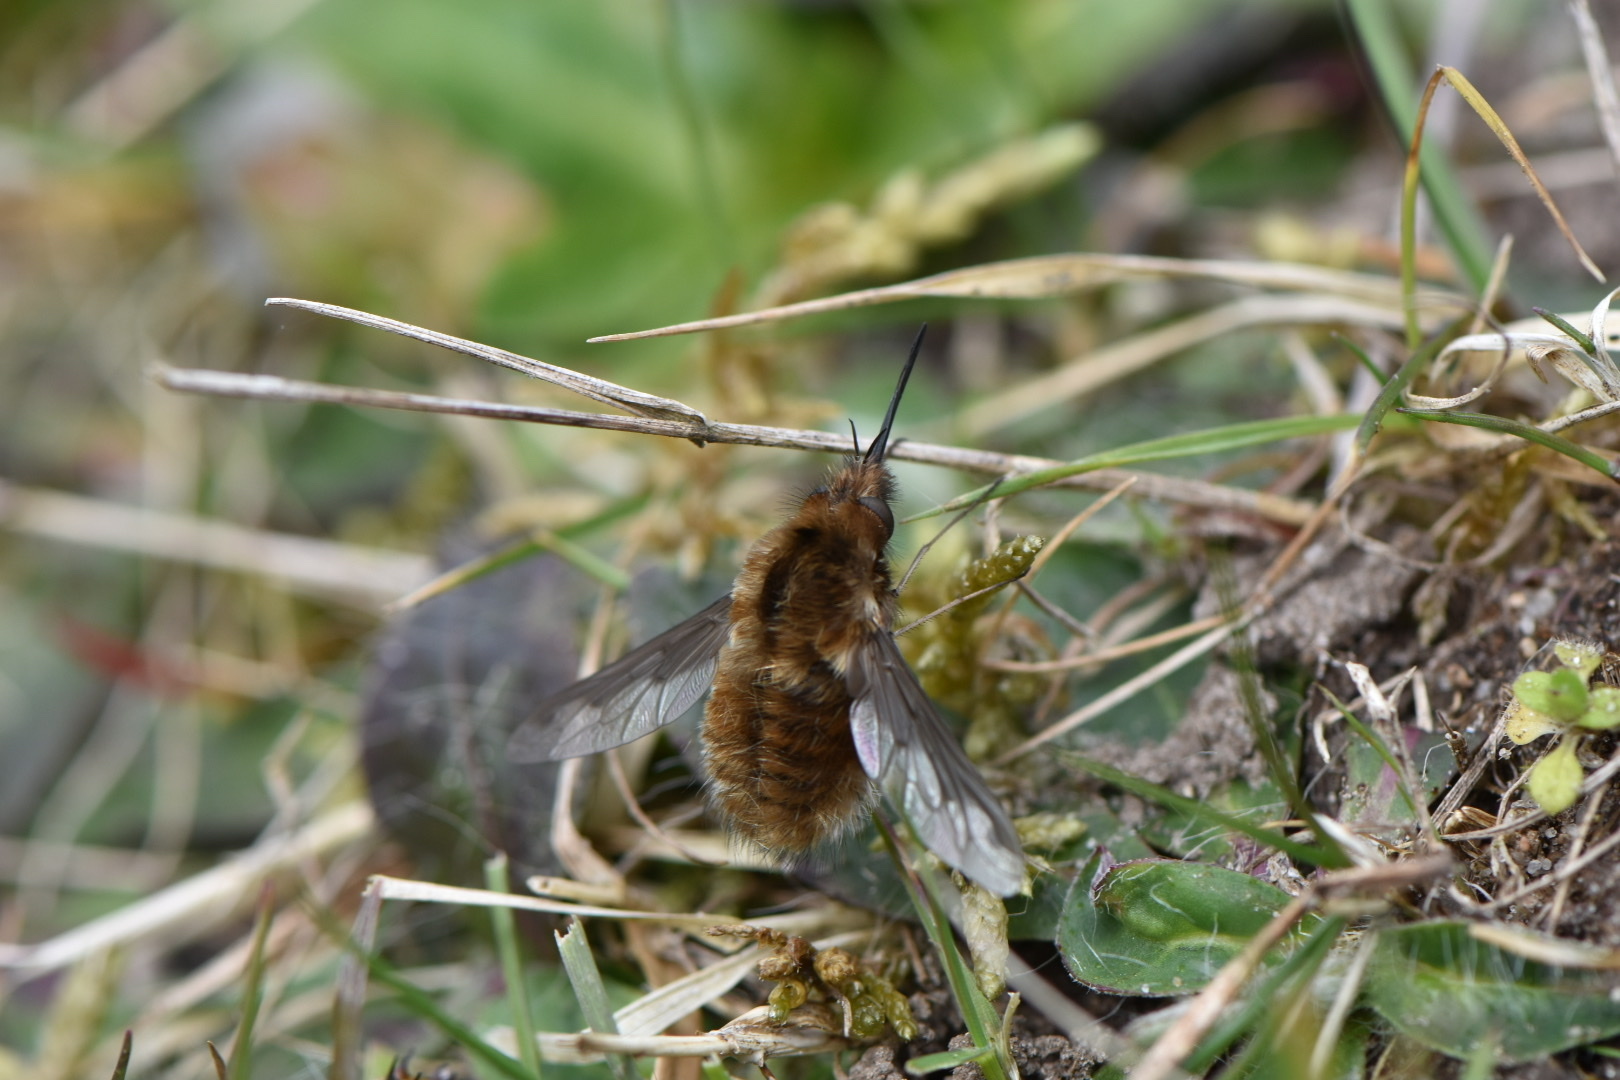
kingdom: Animalia
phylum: Arthropoda
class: Insecta
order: Diptera
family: Bombyliidae
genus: Bombylius
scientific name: Bombylius major
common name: Bee fly
